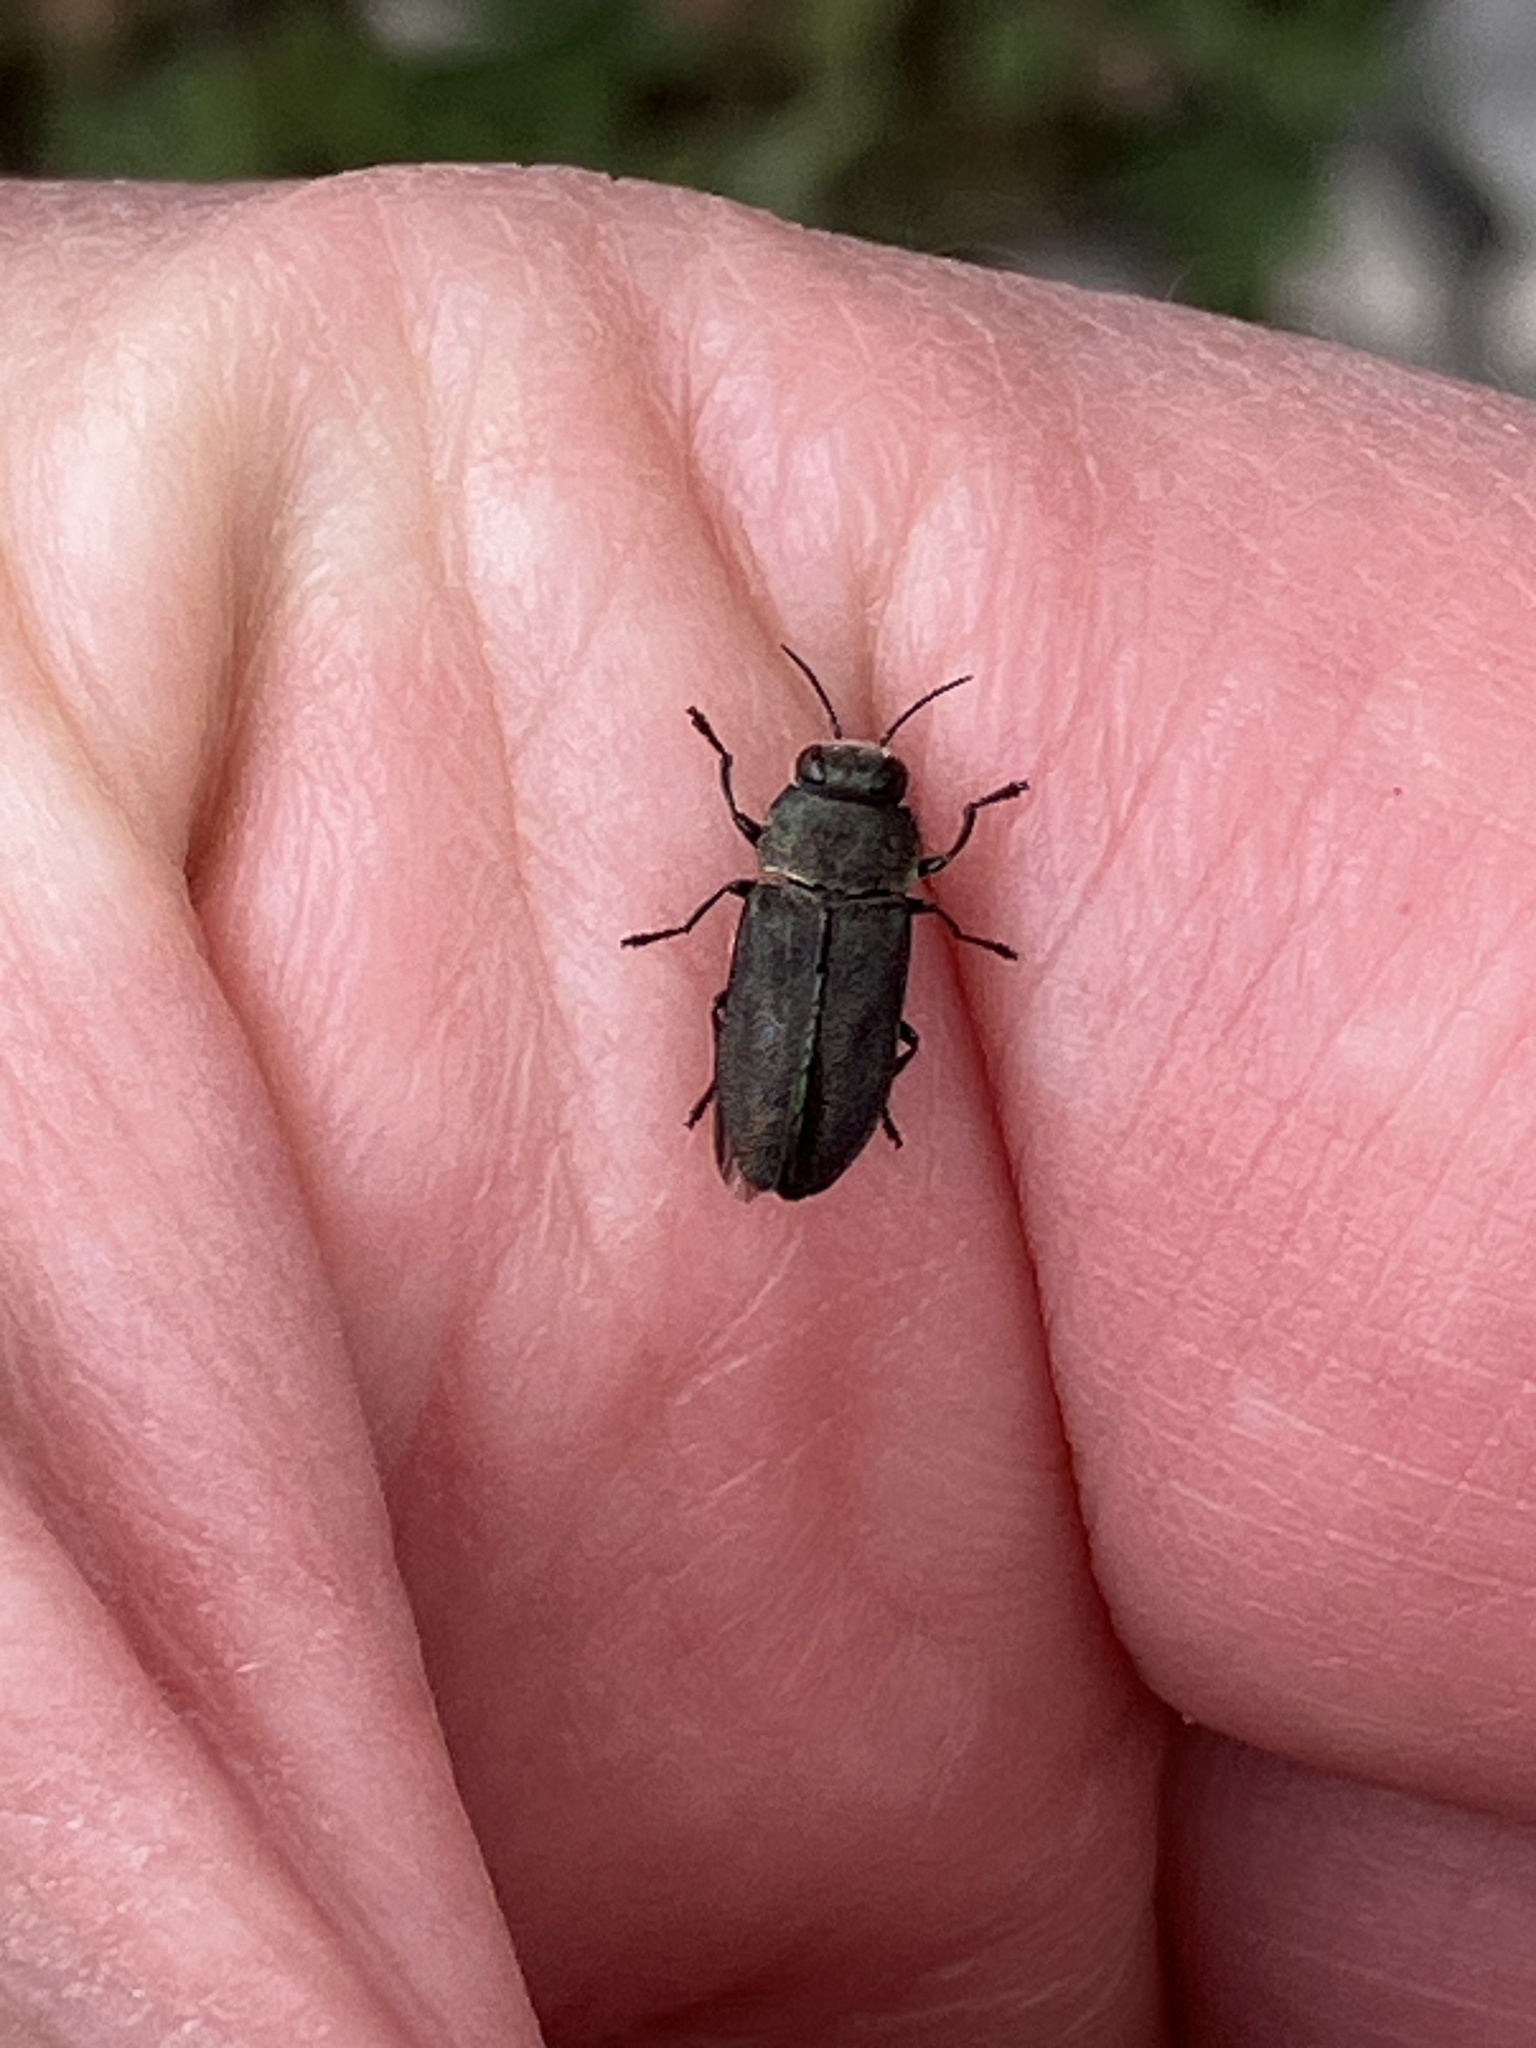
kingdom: Animalia
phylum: Arthropoda
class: Insecta
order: Coleoptera
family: Buprestidae
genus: Anthaxia
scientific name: Anthaxia morio
